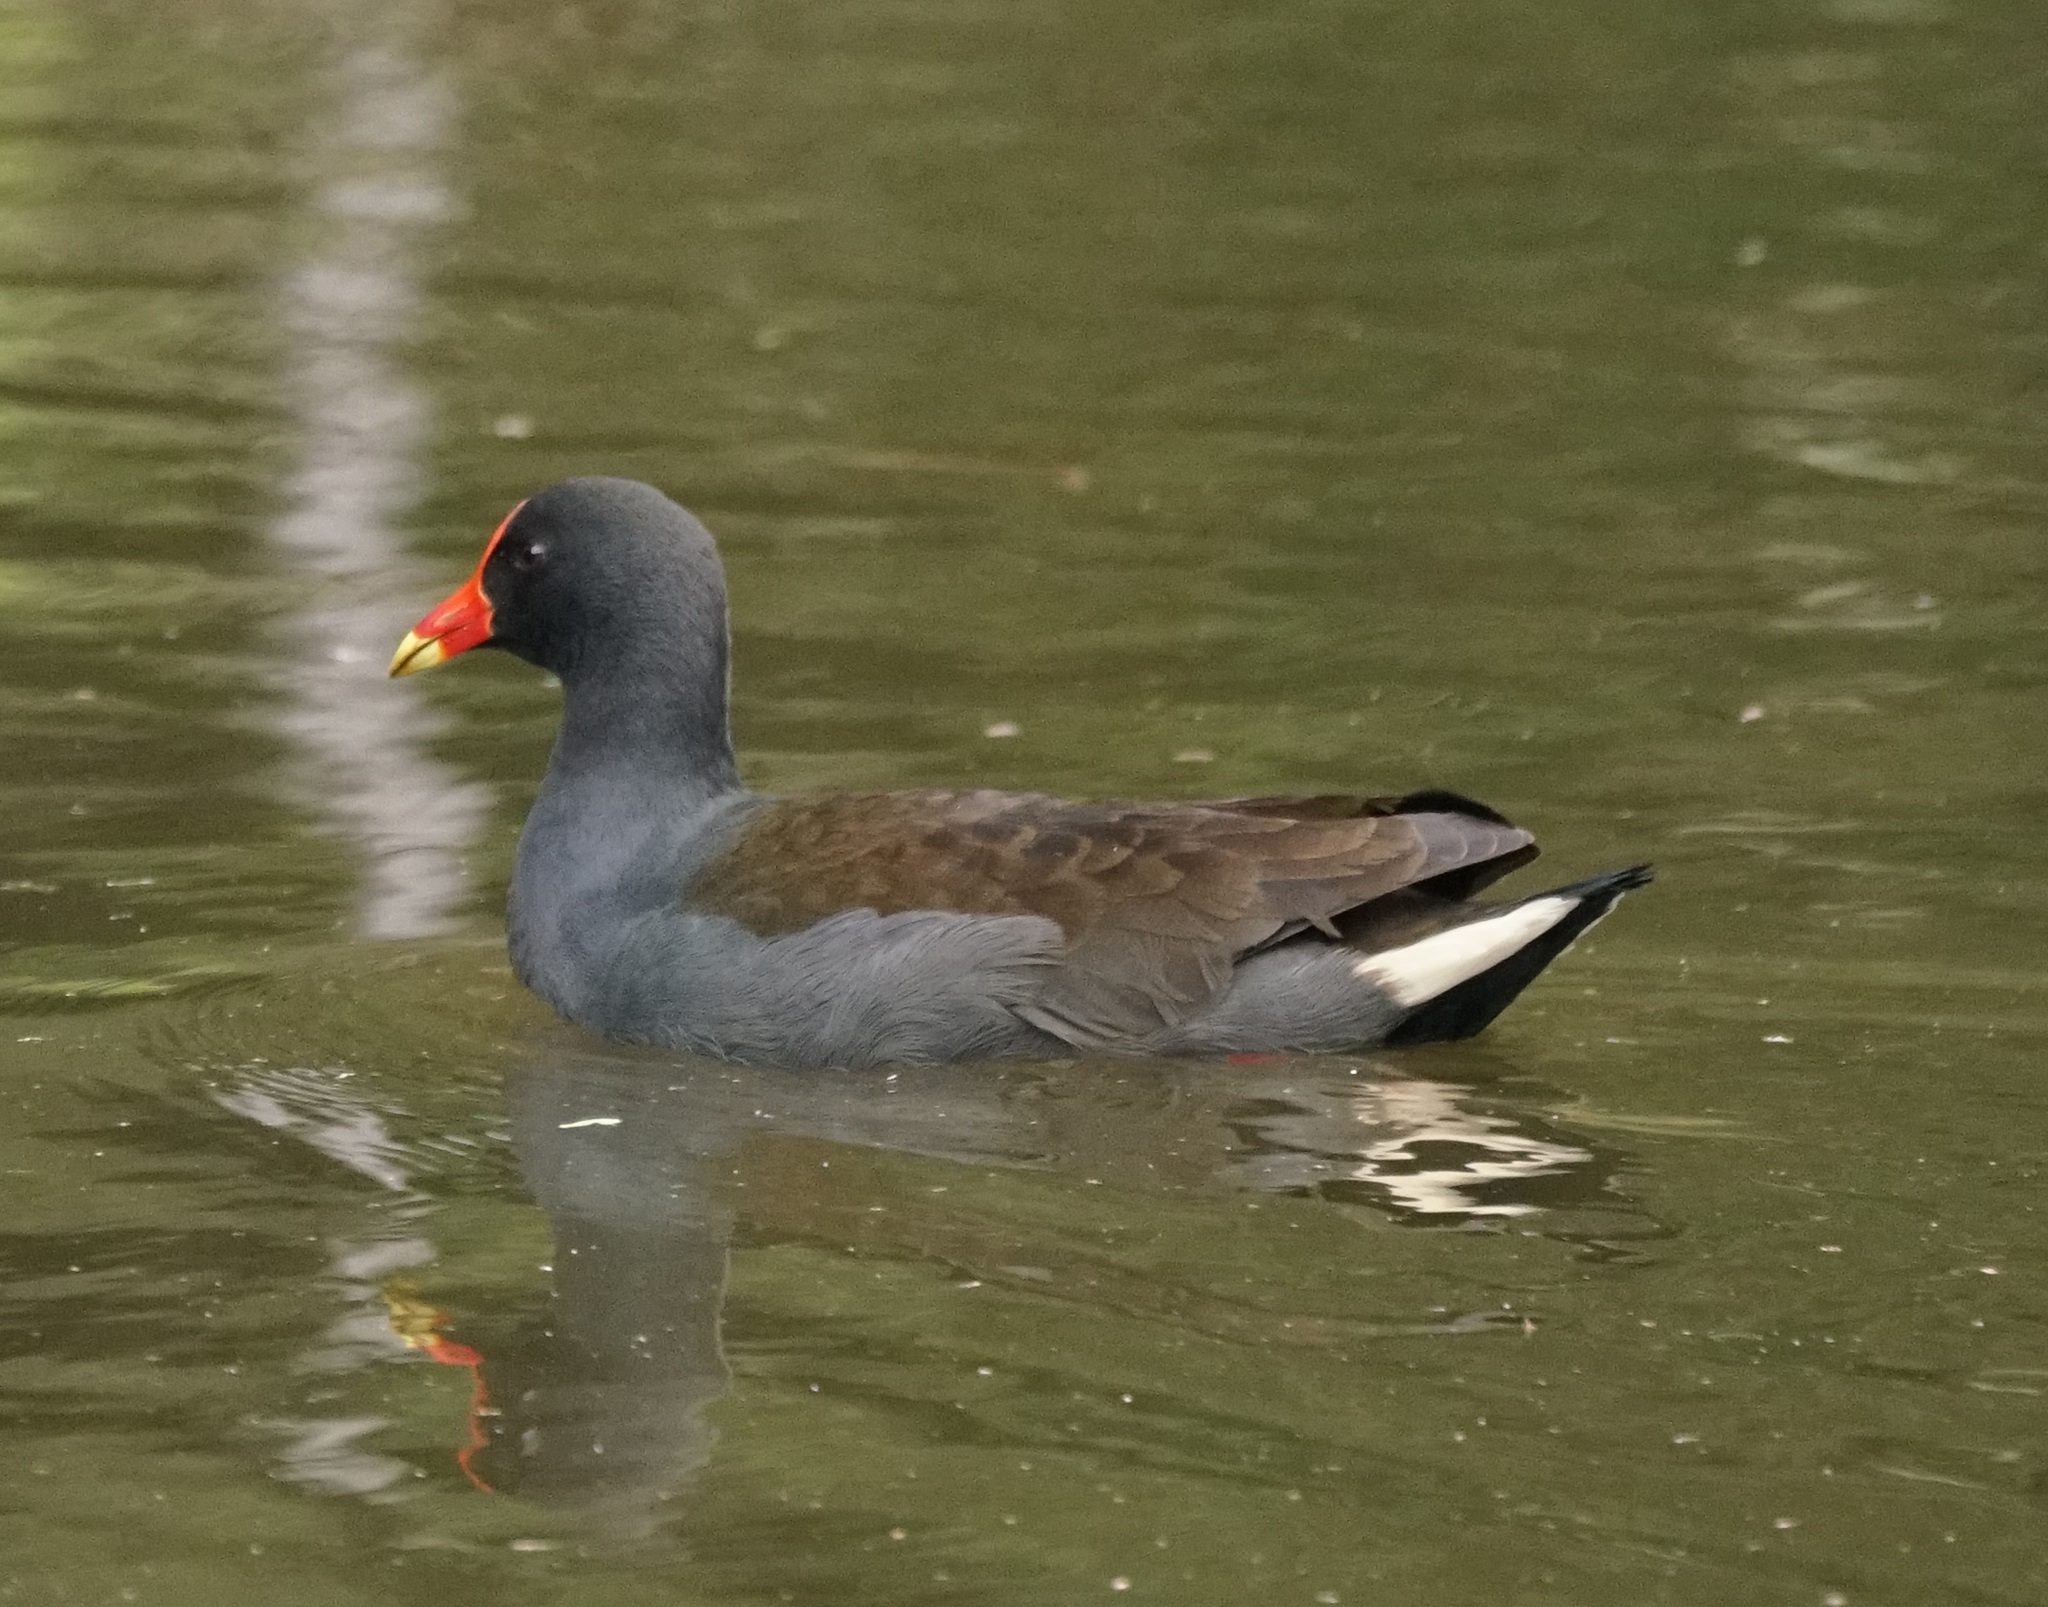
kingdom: Animalia
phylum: Chordata
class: Aves
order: Gruiformes
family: Rallidae
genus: Gallinula
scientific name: Gallinula tenebrosa
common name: Dusky moorhen
